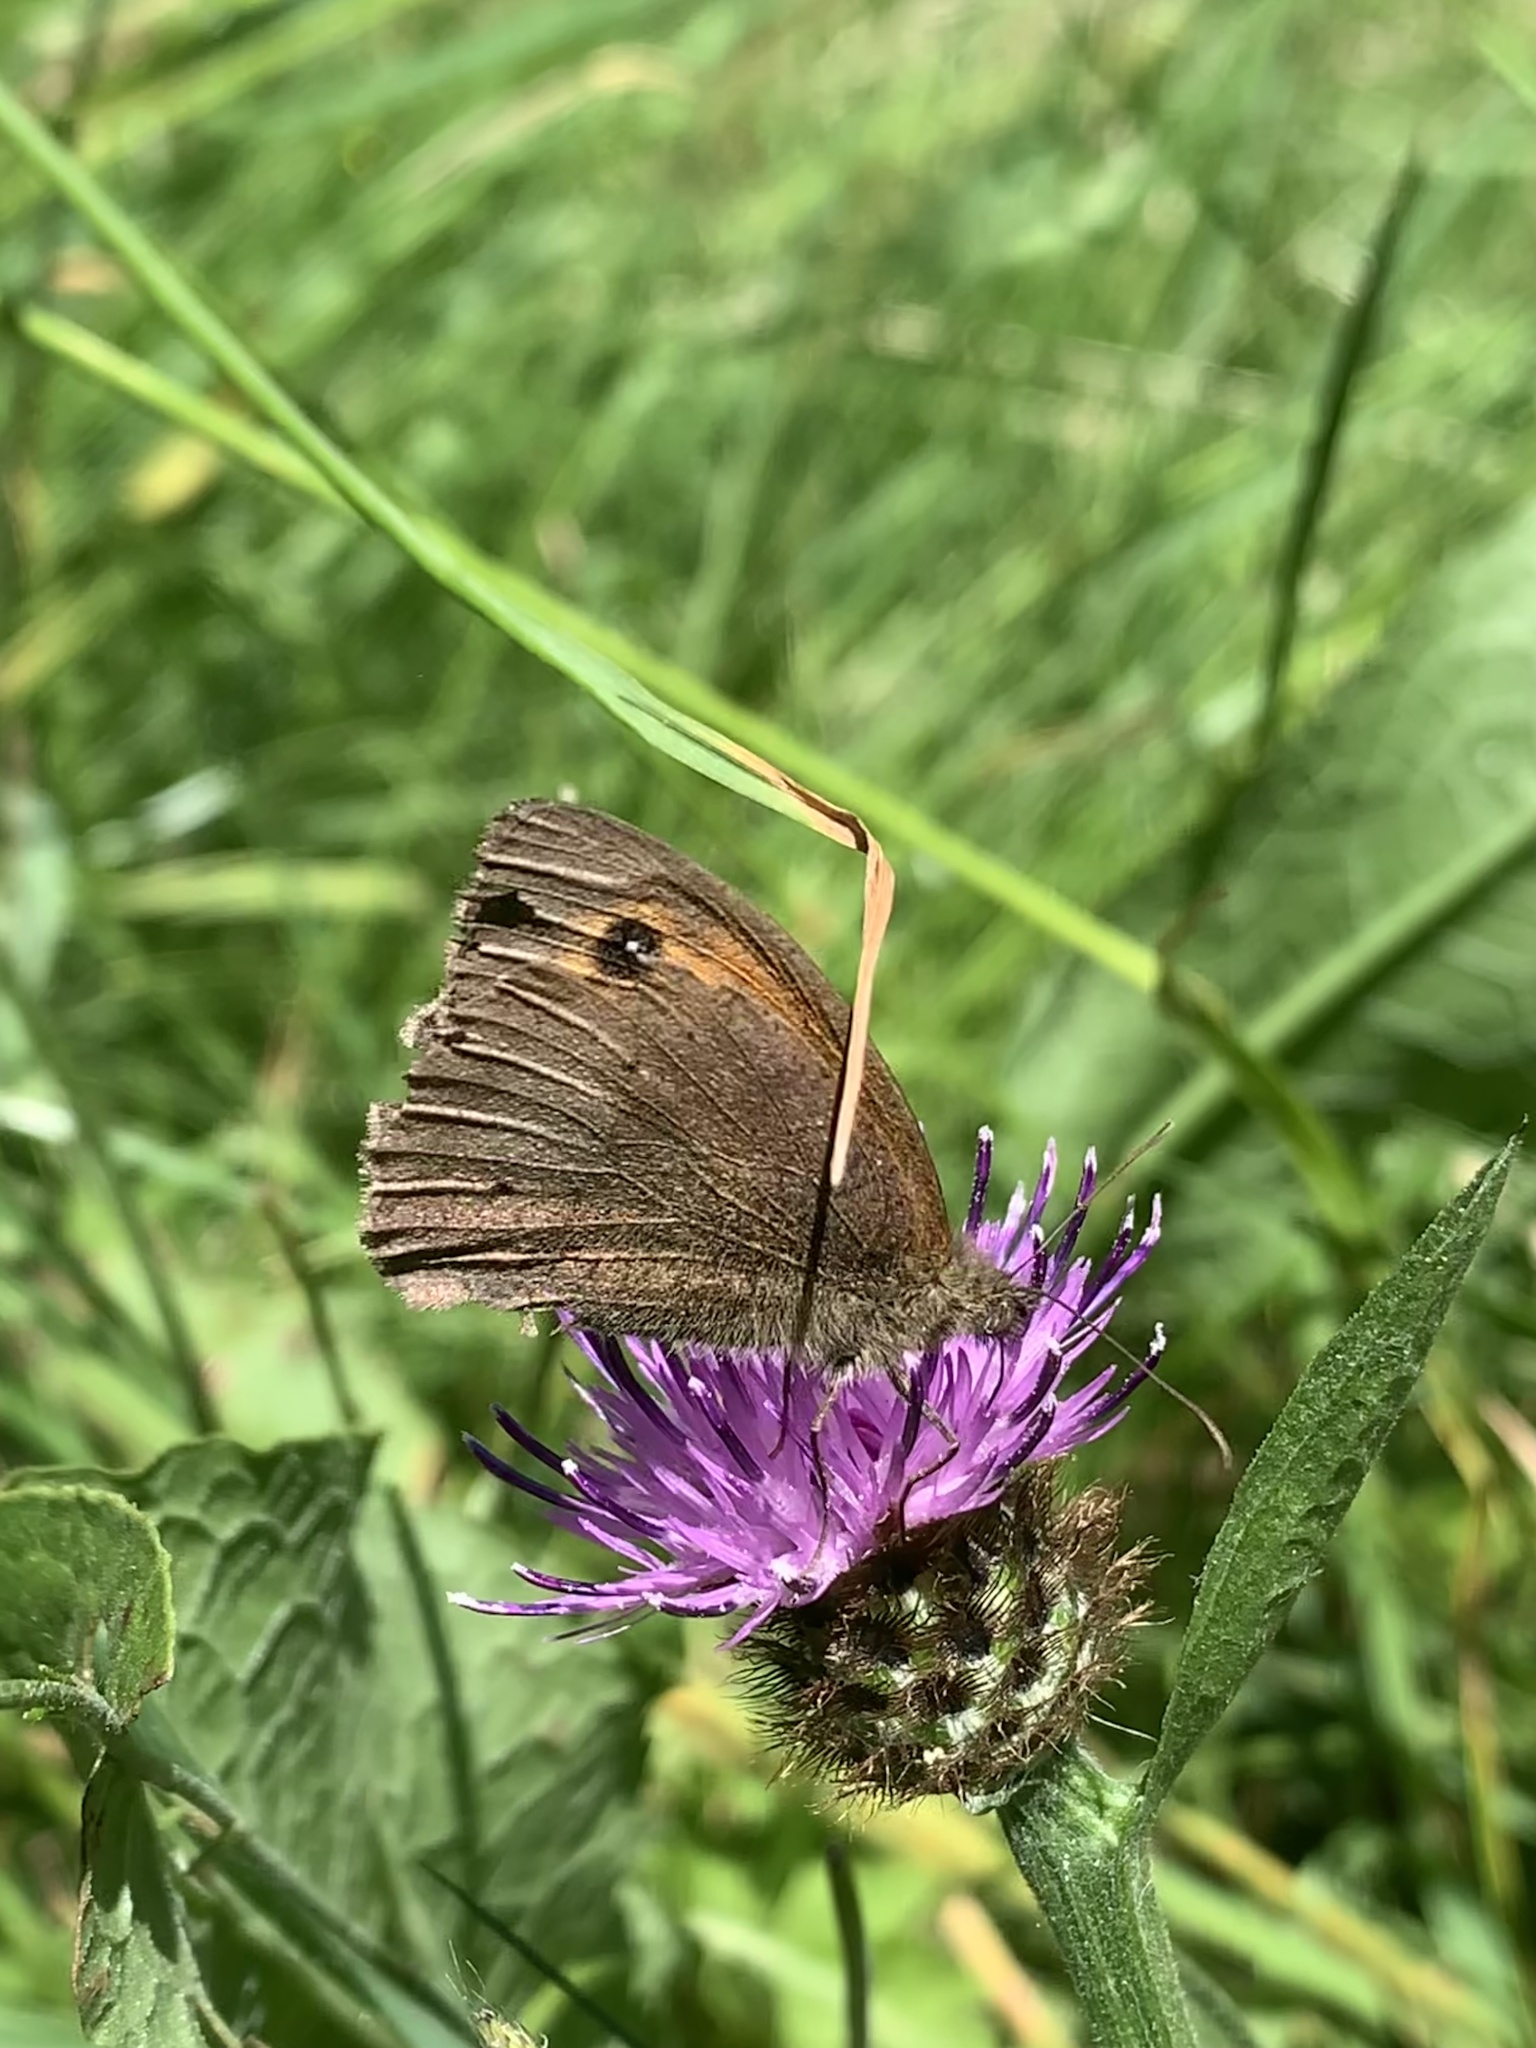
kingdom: Animalia
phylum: Arthropoda
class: Insecta
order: Lepidoptera
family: Nymphalidae
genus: Maniola
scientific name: Maniola jurtina
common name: Meadow brown
